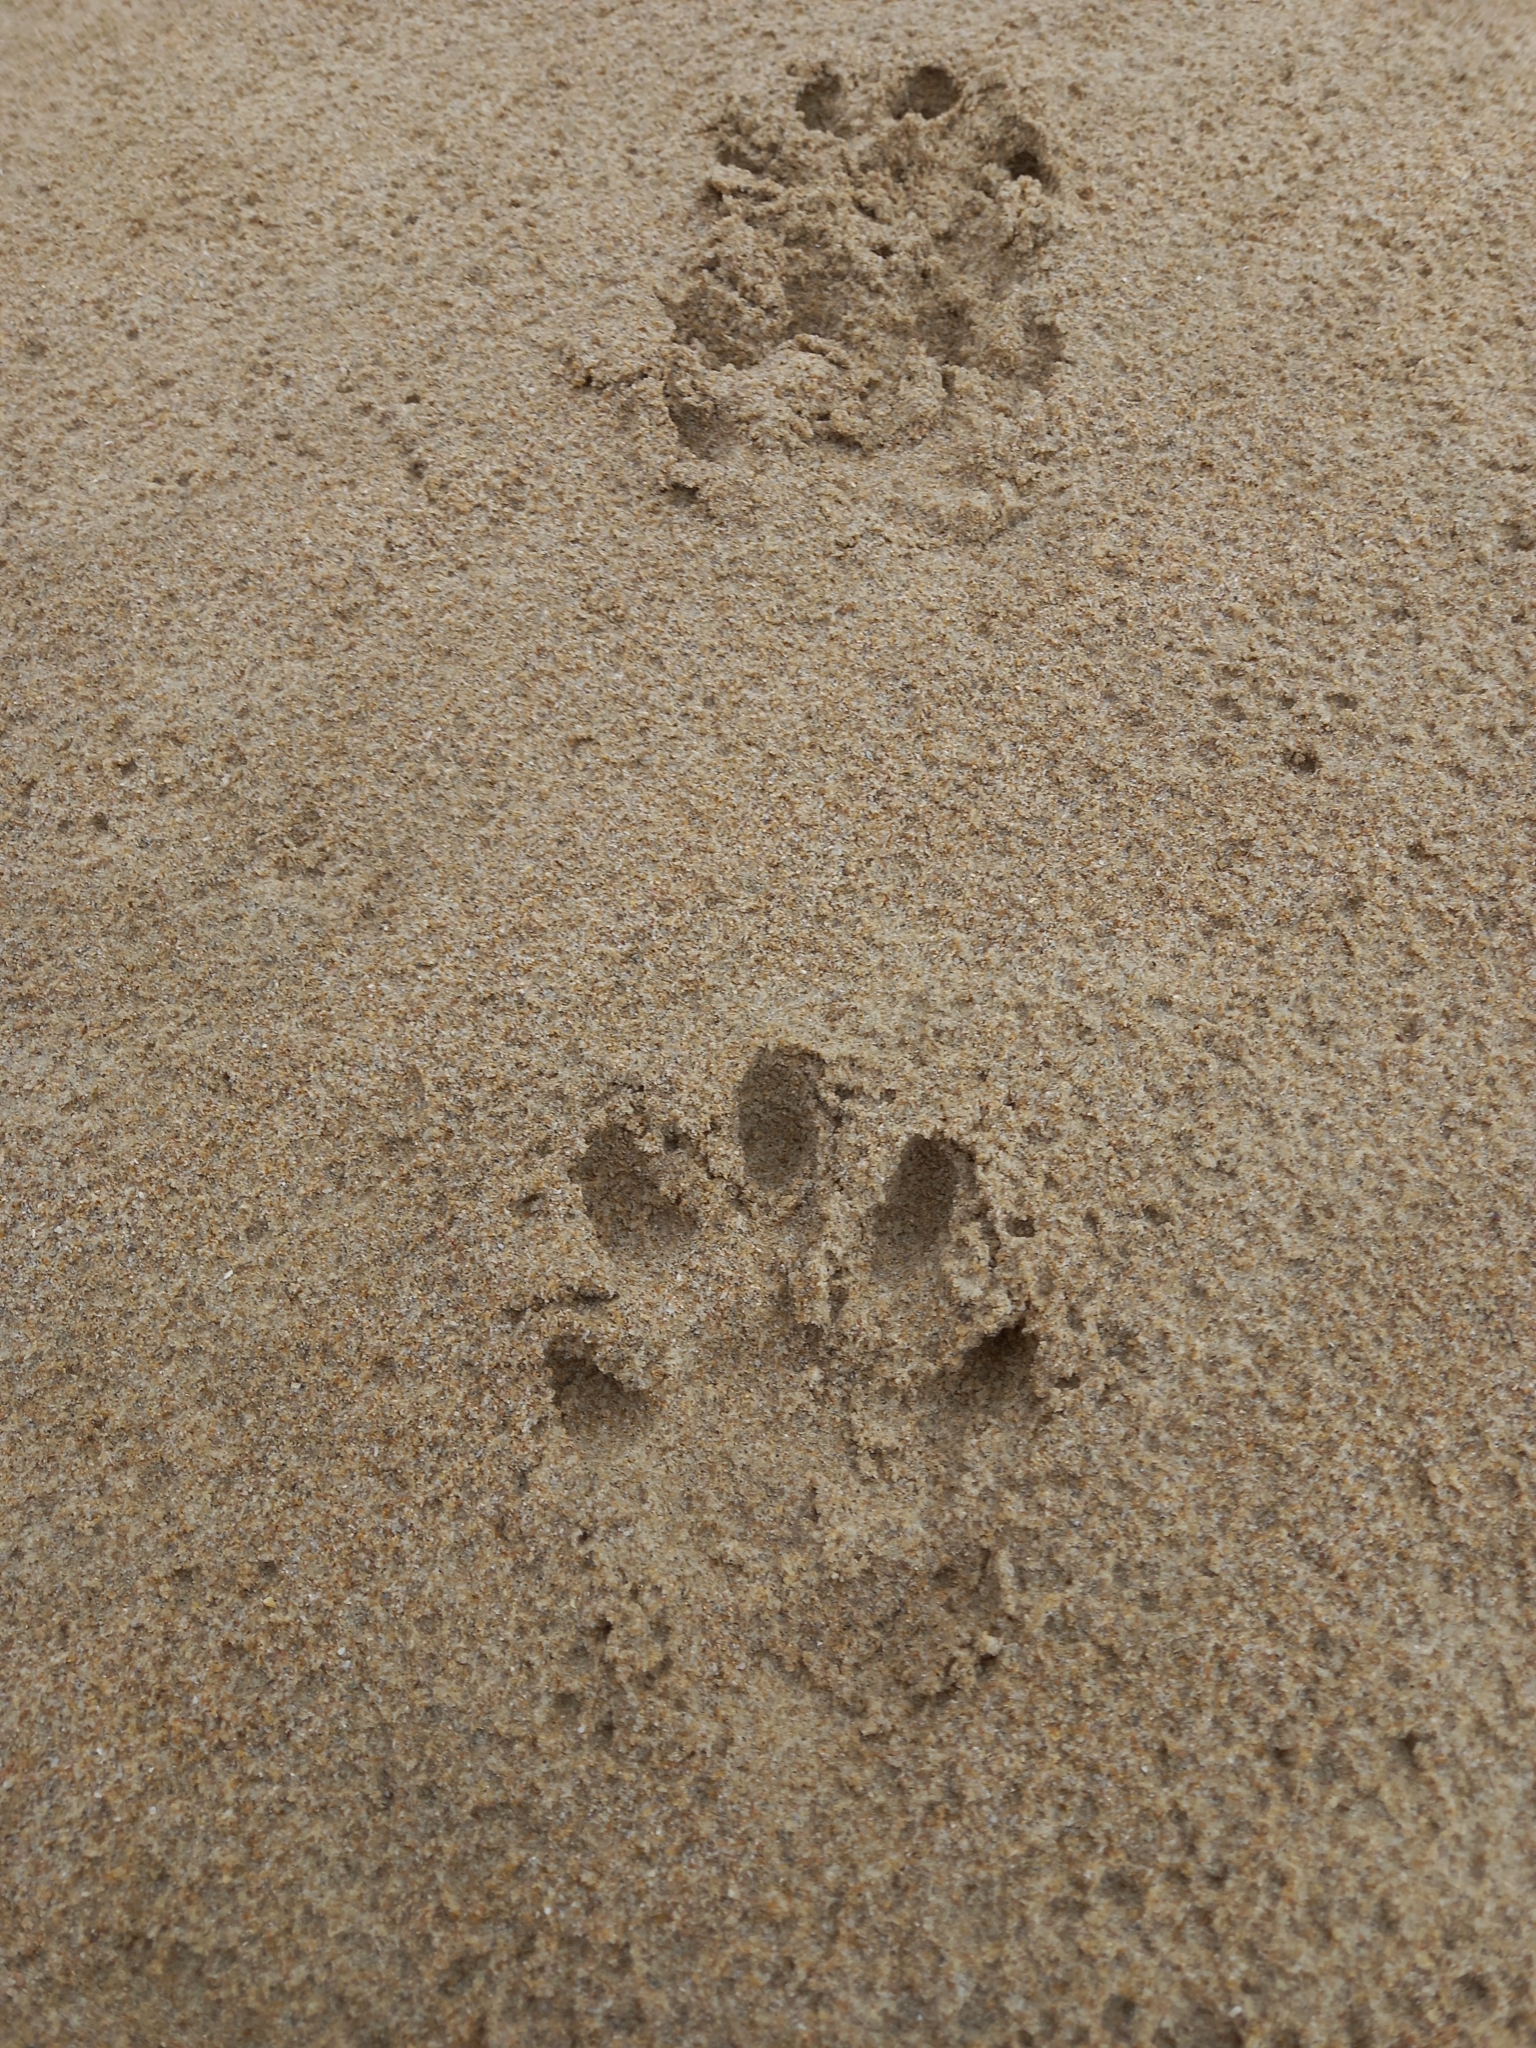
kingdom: Animalia
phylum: Chordata
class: Mammalia
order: Carnivora
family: Mustelidae
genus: Aonyx
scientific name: Aonyx capensis
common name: African clawless otter
